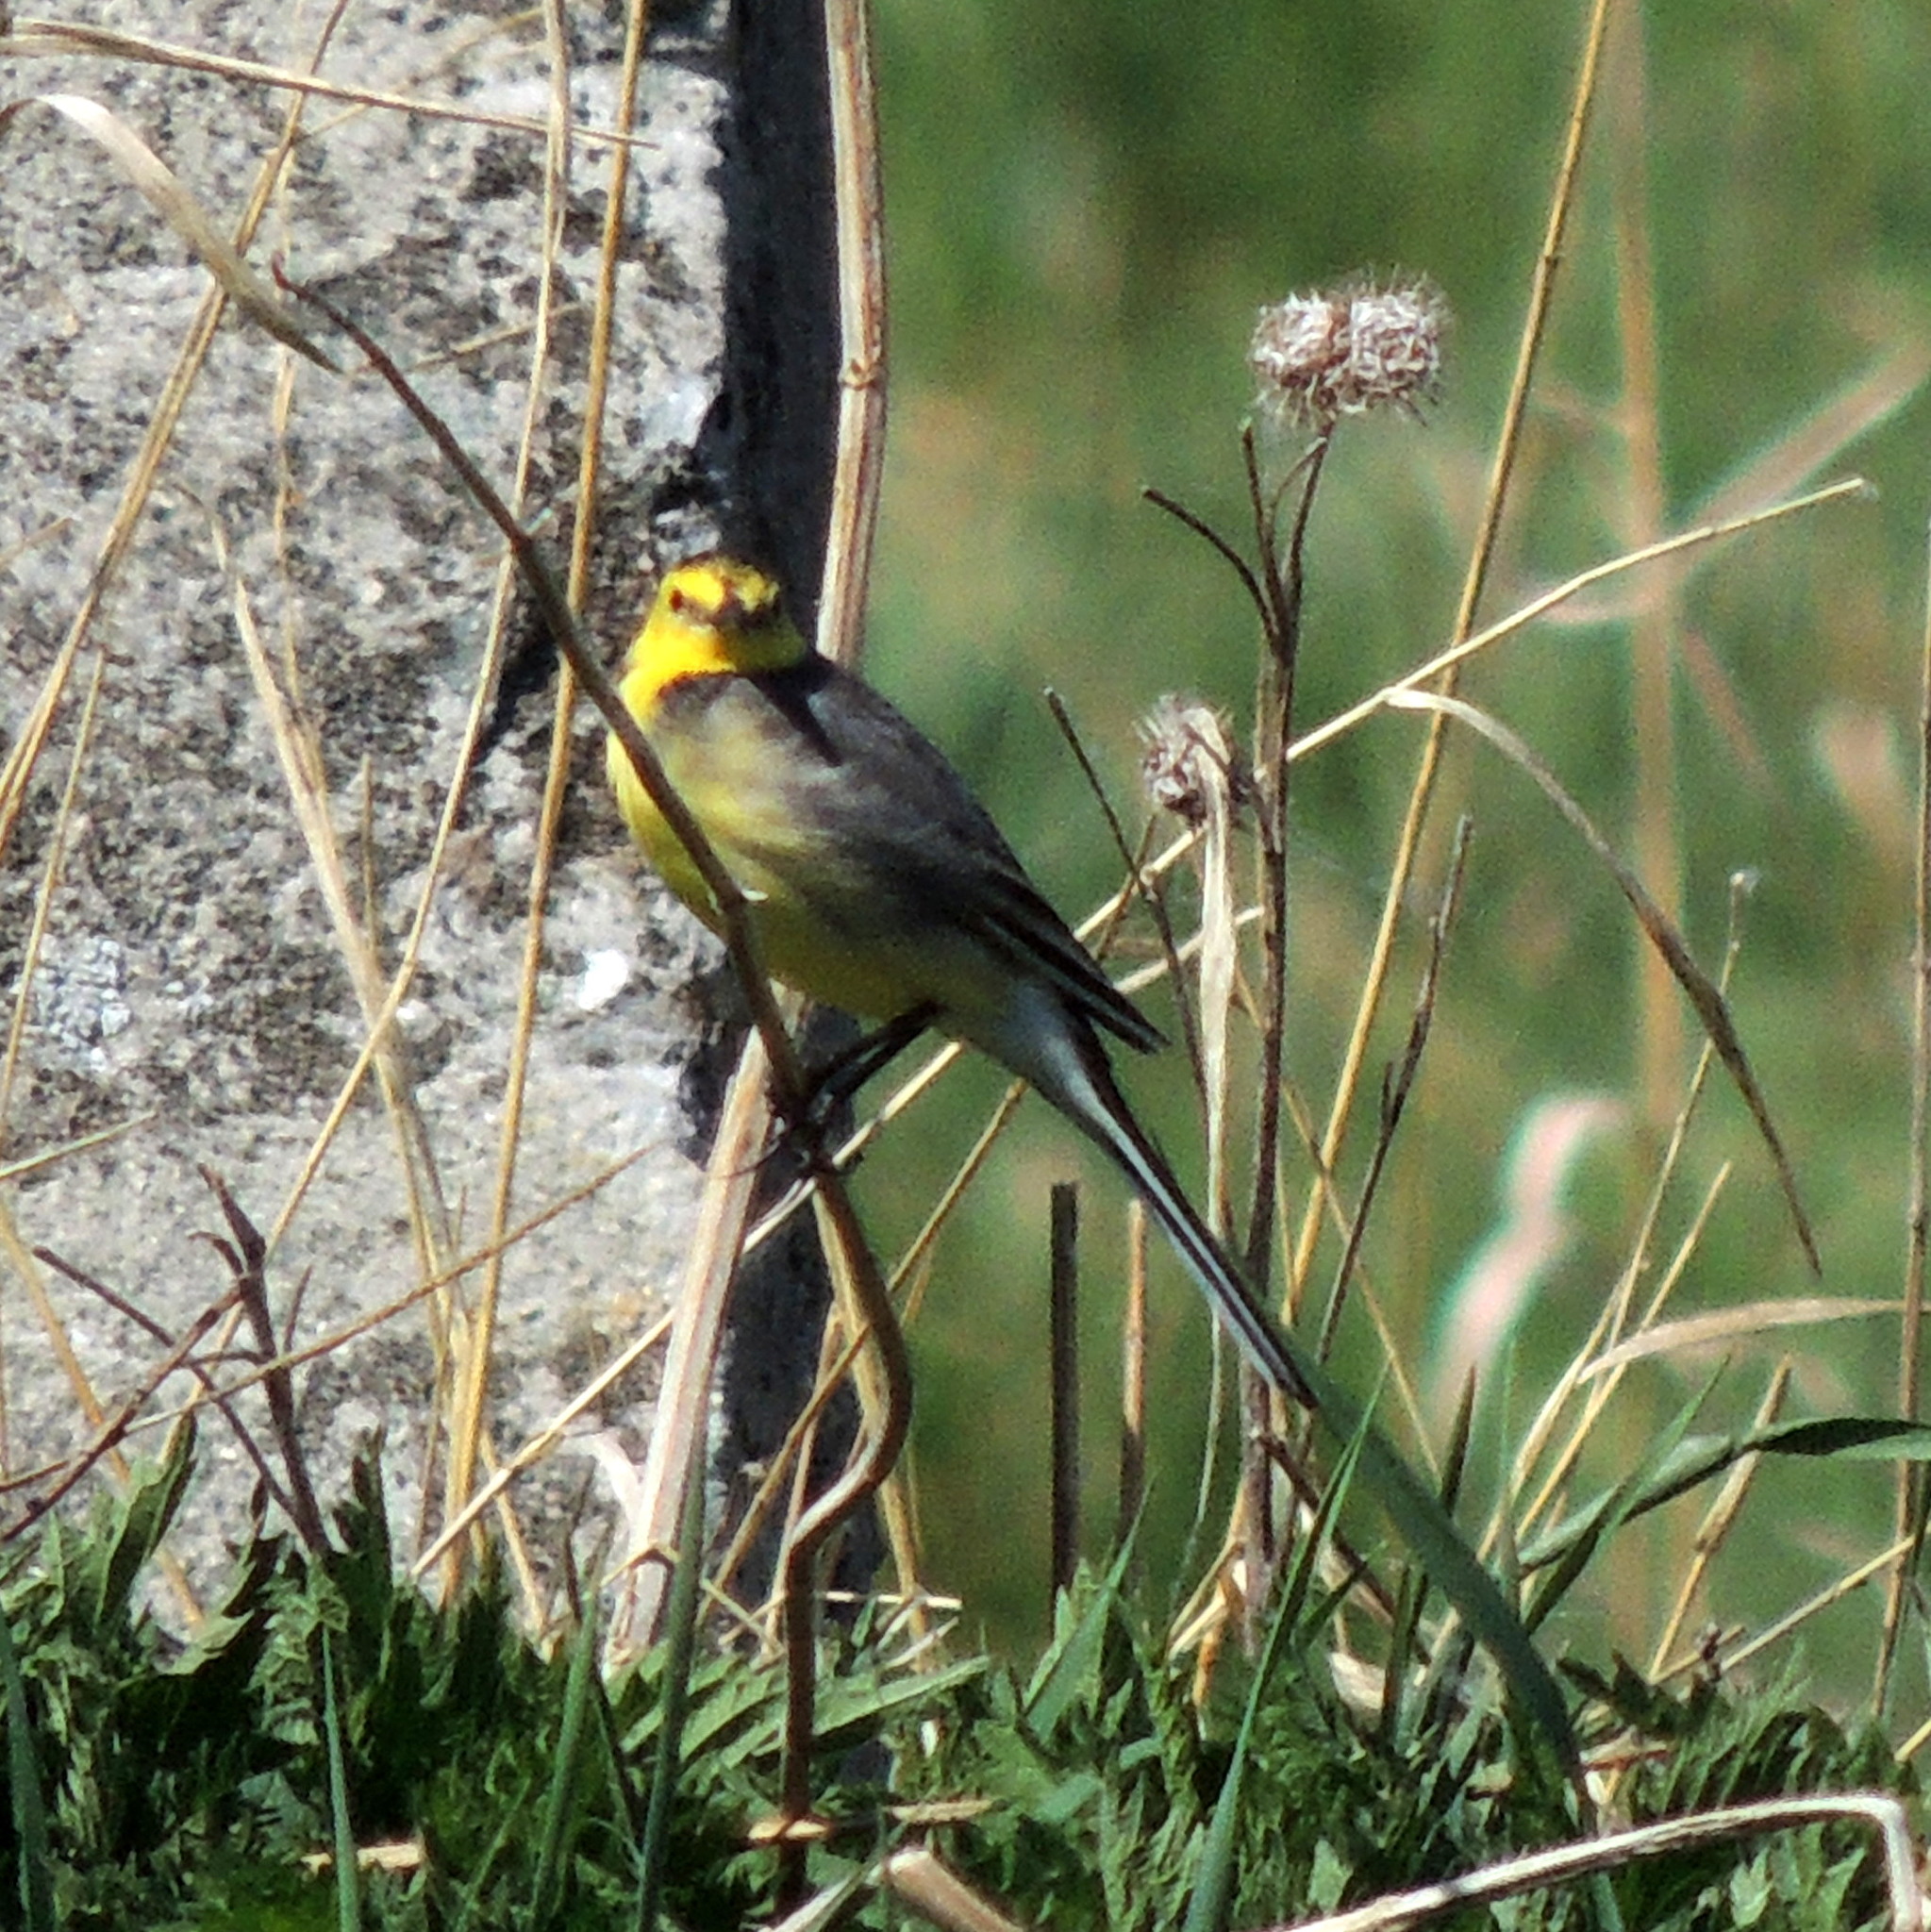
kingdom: Animalia
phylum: Chordata
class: Aves
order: Passeriformes
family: Motacillidae
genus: Motacilla
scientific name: Motacilla citreola
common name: Citrine wagtail
